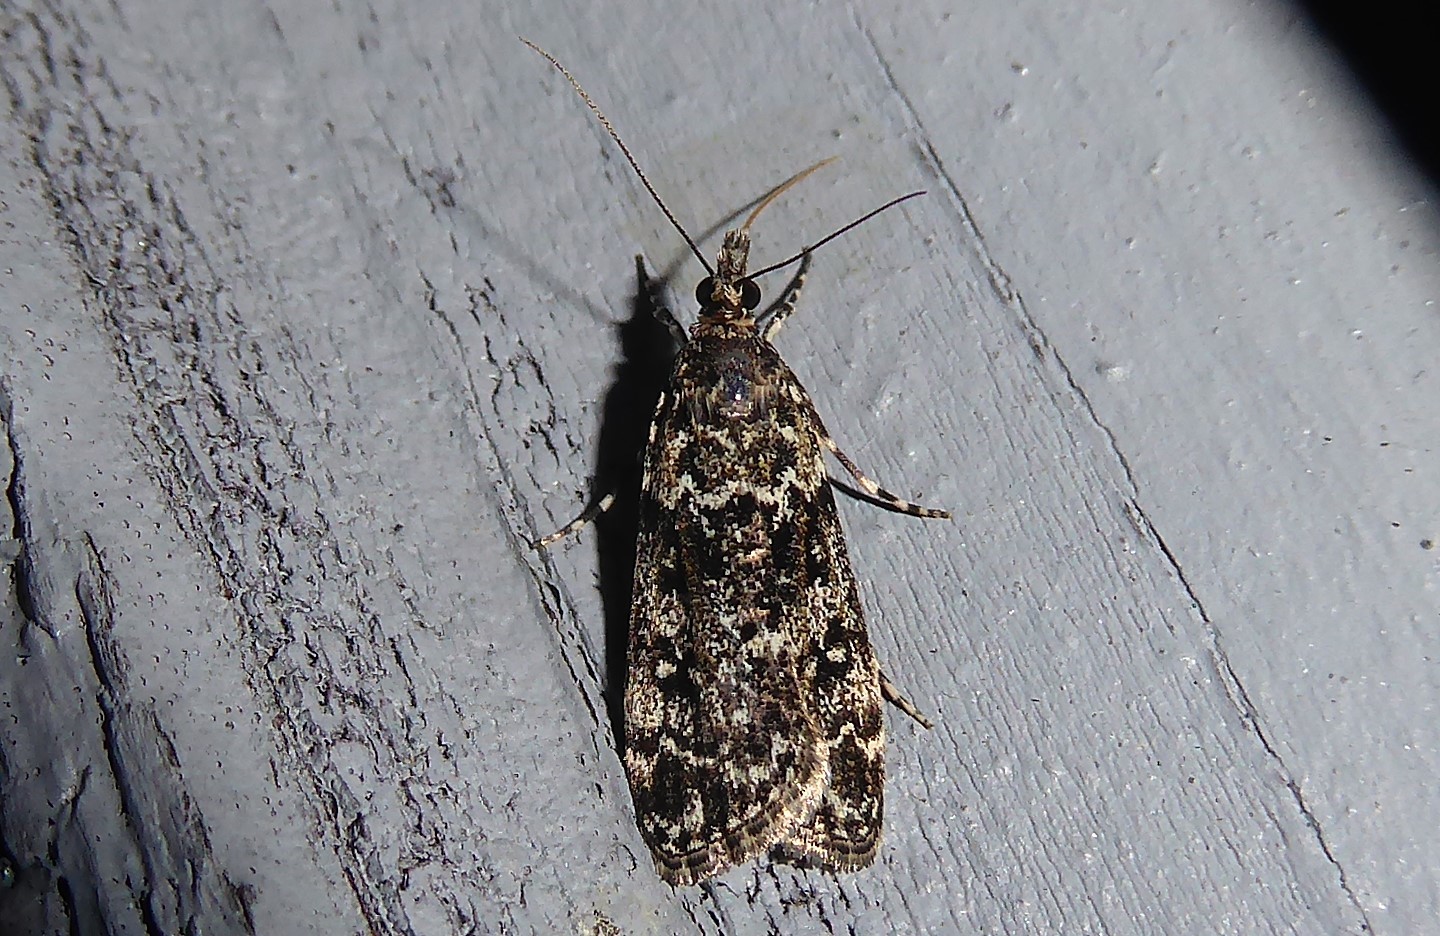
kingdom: Animalia
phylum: Arthropoda
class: Insecta
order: Lepidoptera
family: Crambidae
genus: Eudonia
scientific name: Eudonia philerga
